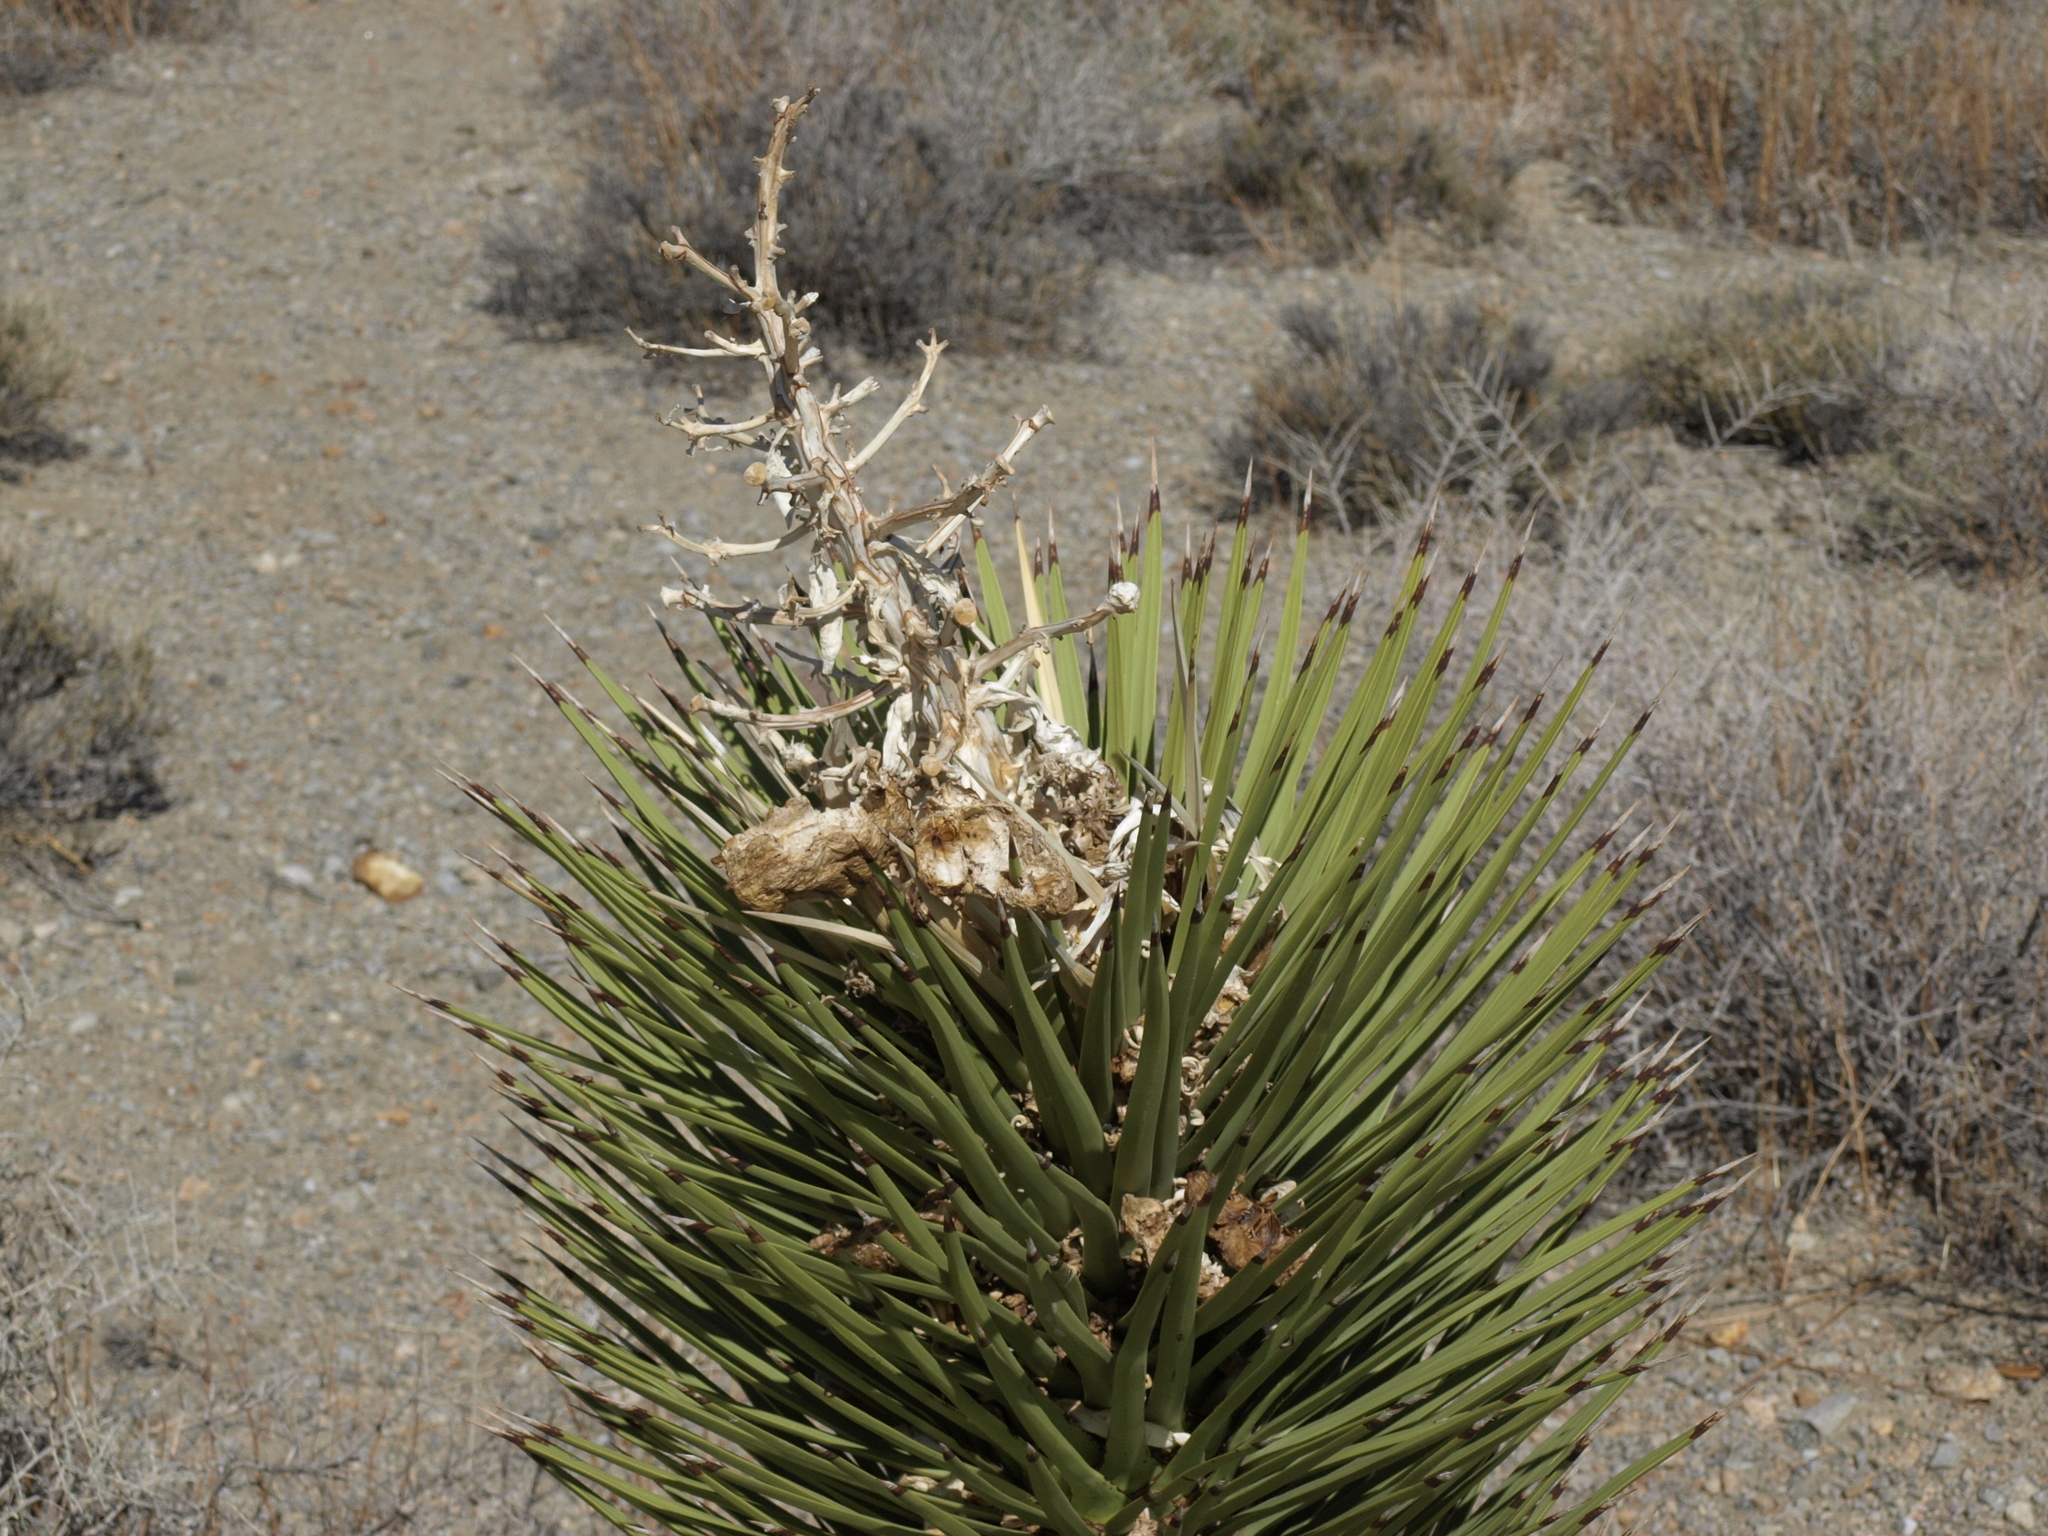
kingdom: Plantae
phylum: Tracheophyta
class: Liliopsida
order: Asparagales
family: Asparagaceae
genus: Yucca
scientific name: Yucca brevifolia
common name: Joshua tree
